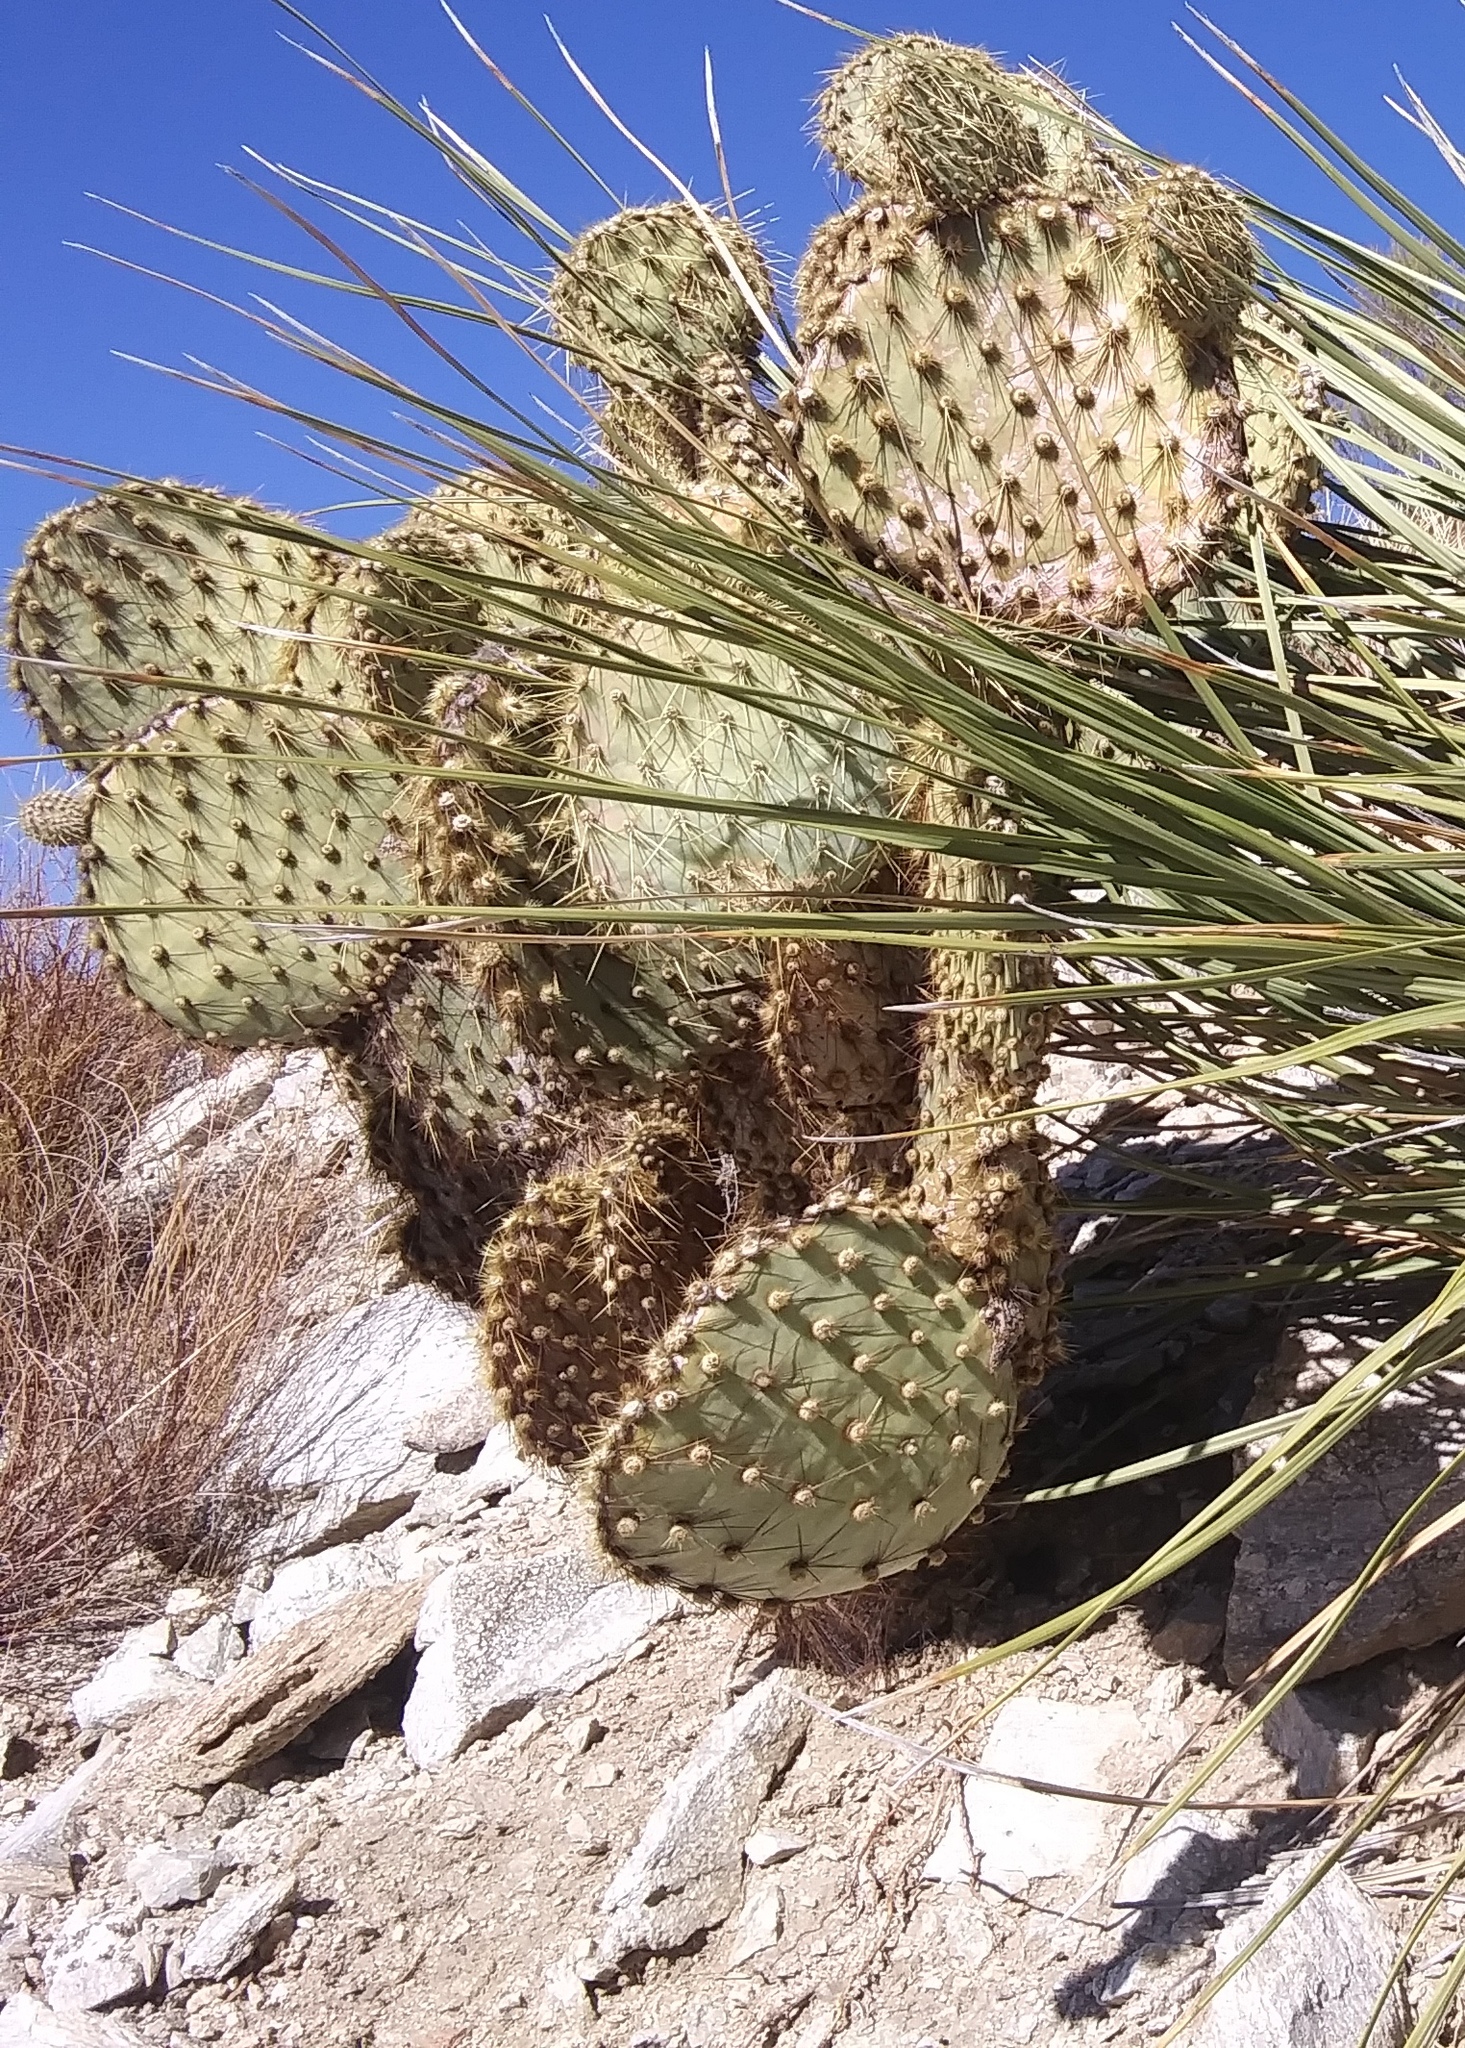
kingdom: Plantae
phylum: Tracheophyta
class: Magnoliopsida
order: Caryophyllales
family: Cactaceae
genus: Opuntia
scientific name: Opuntia chlorotica
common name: Dollar-joint prickly-pear
